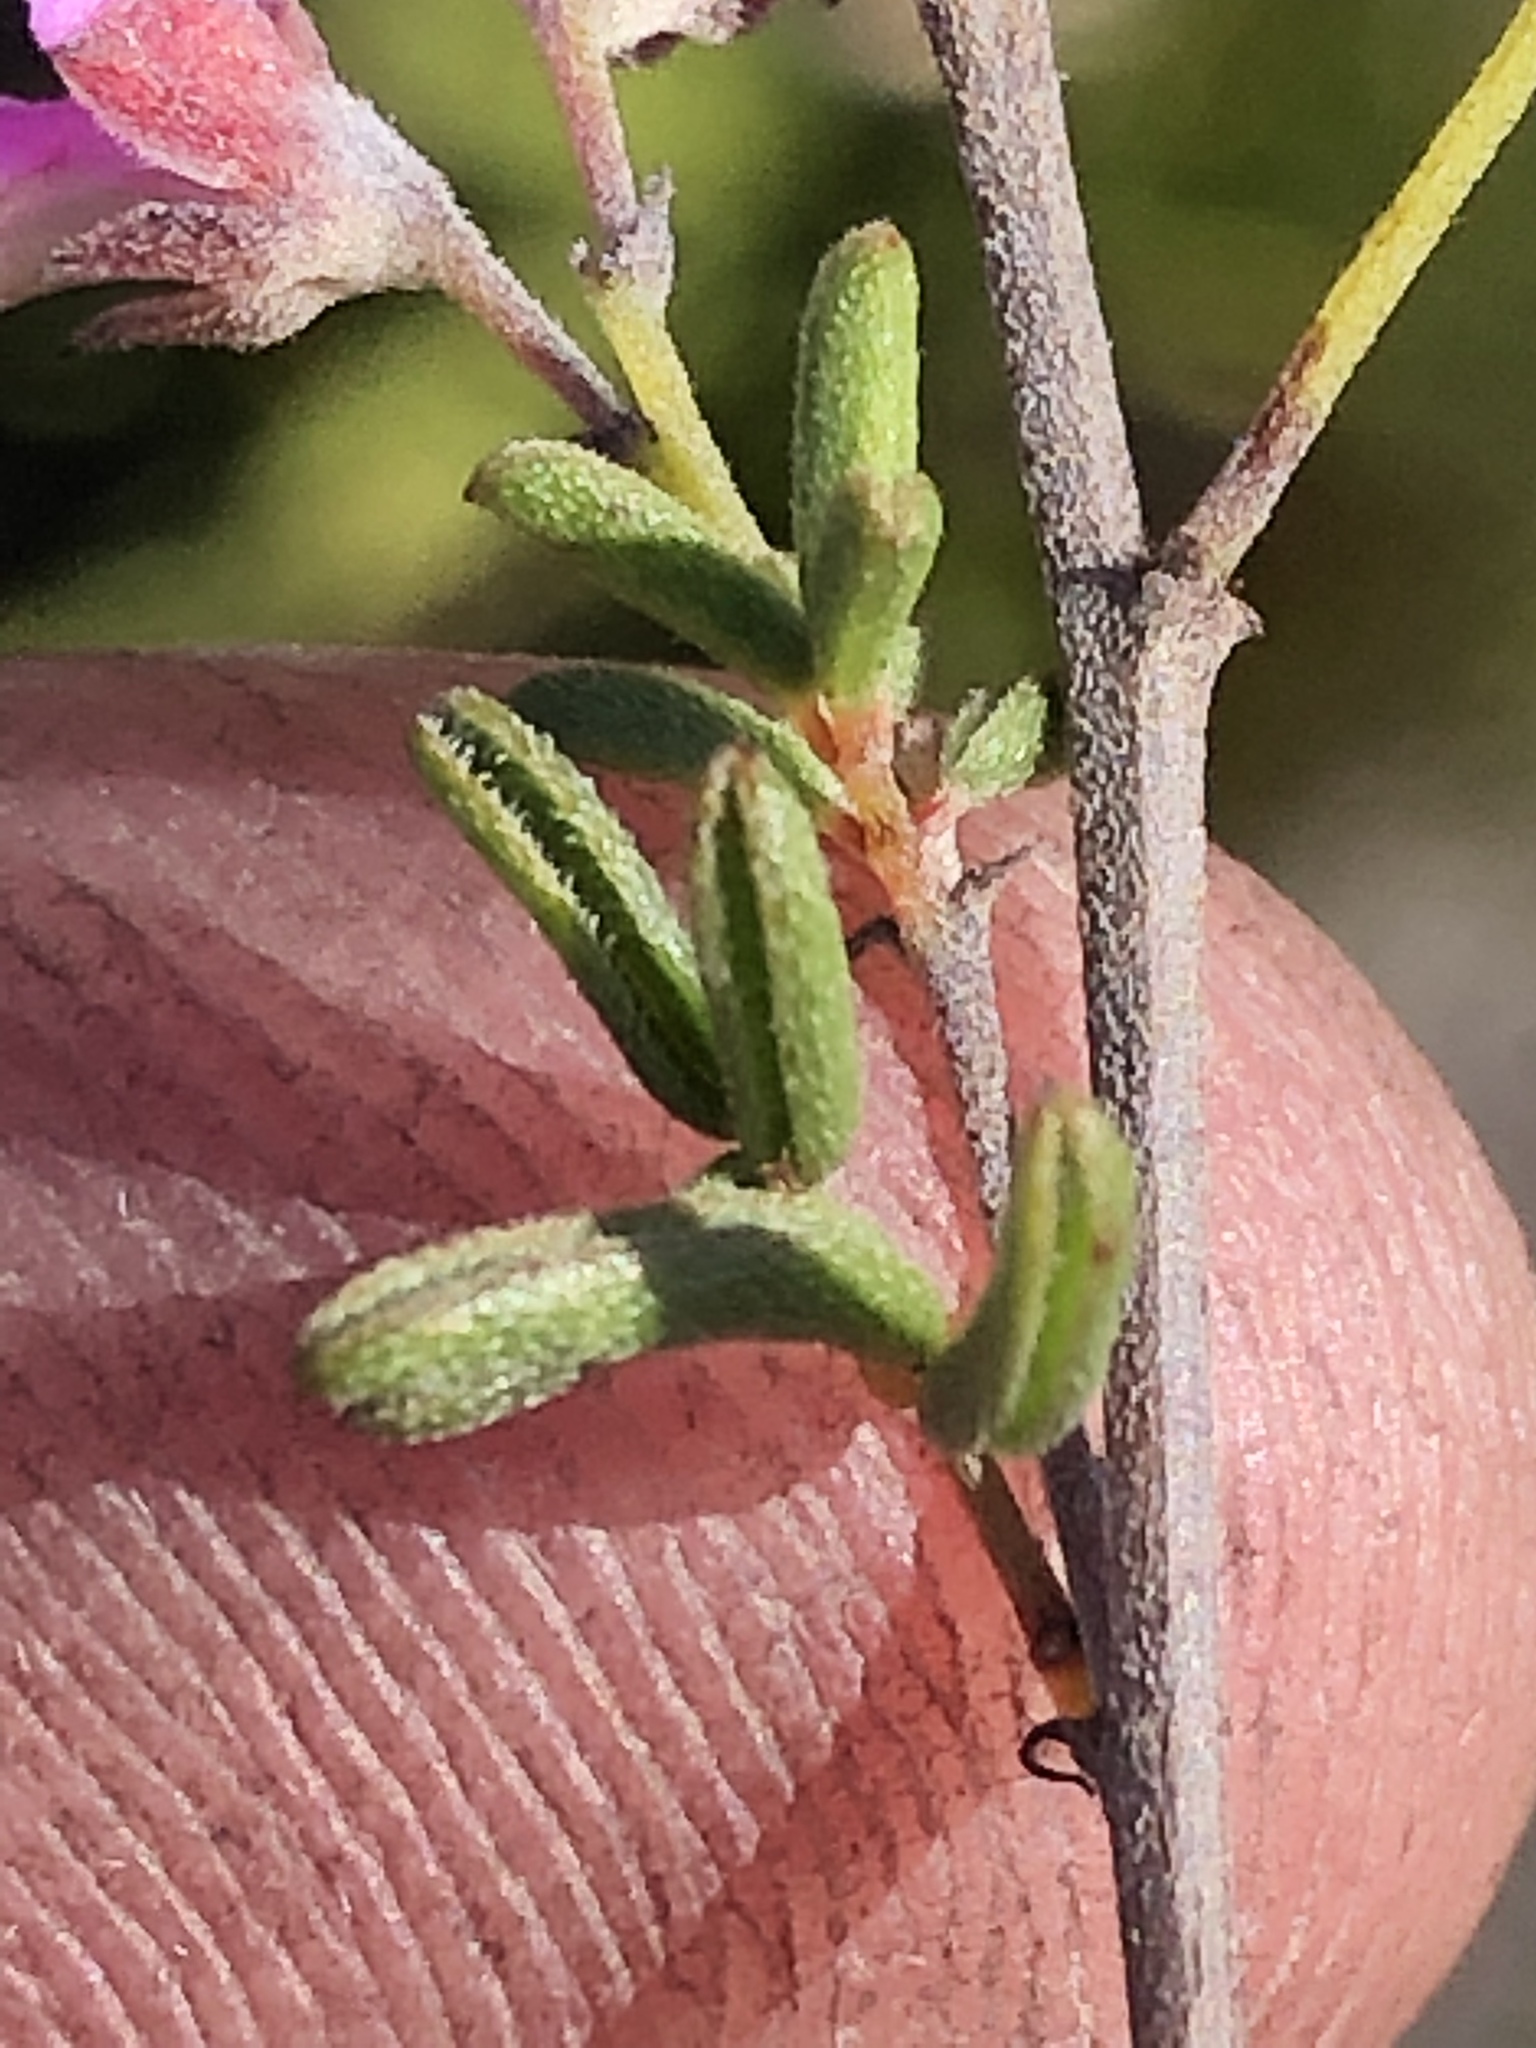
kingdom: Plantae
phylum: Tracheophyta
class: Magnoliopsida
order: Fabales
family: Fabaceae
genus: Indigofera
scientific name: Indigofera concava
